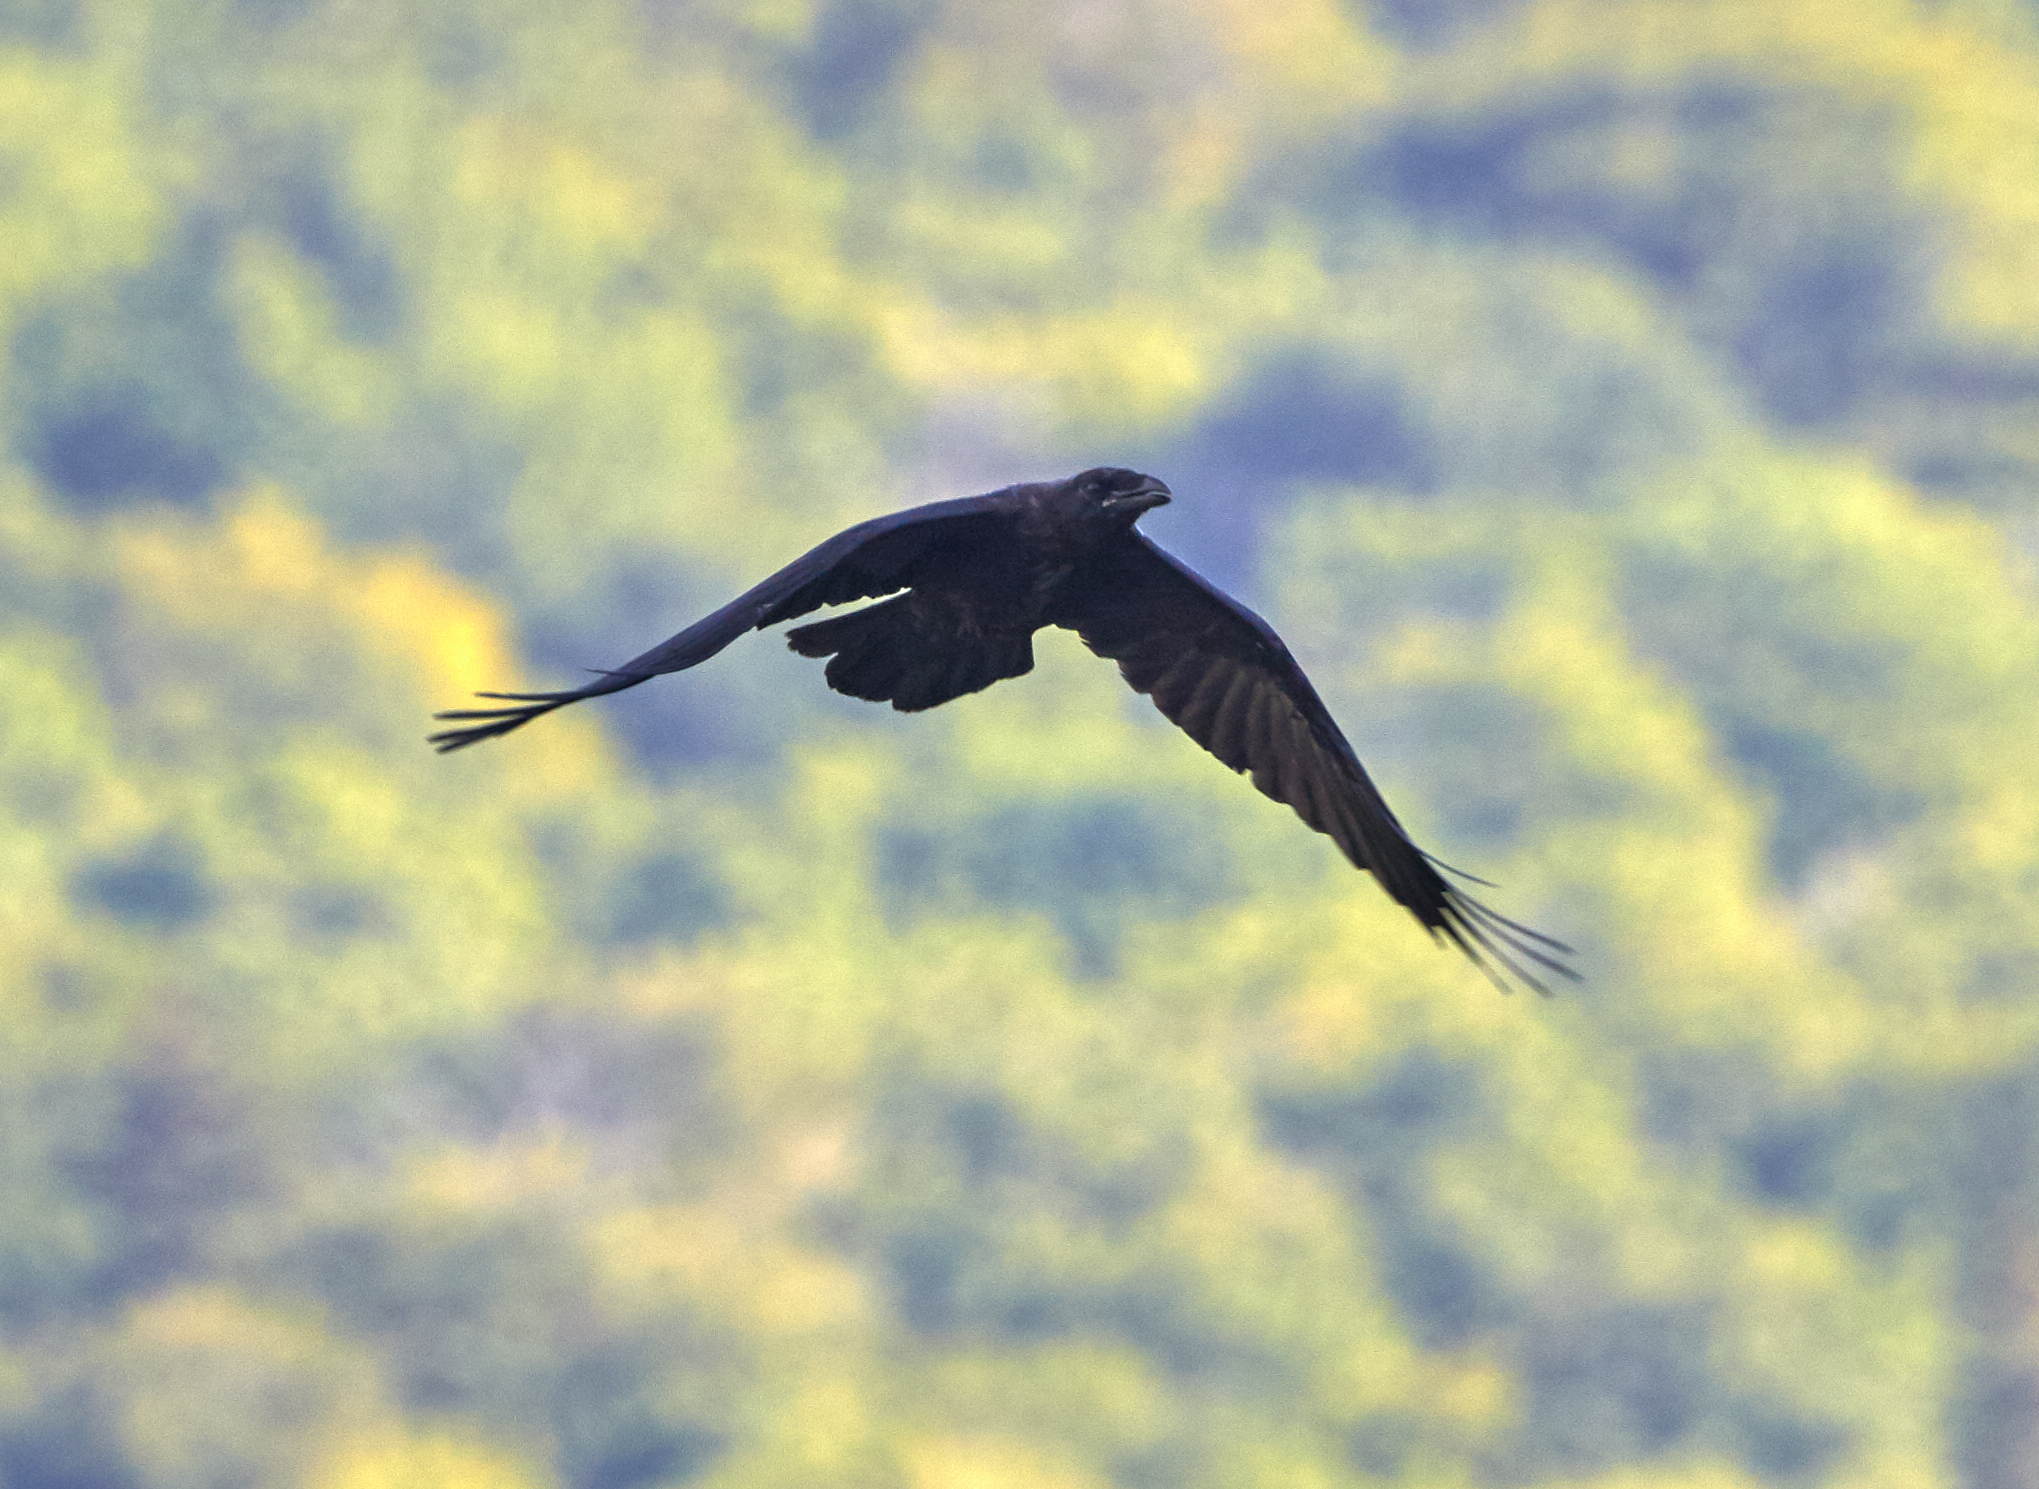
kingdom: Animalia
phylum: Chordata
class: Aves
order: Passeriformes
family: Corvidae
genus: Corvus
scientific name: Corvus corax
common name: Common raven
